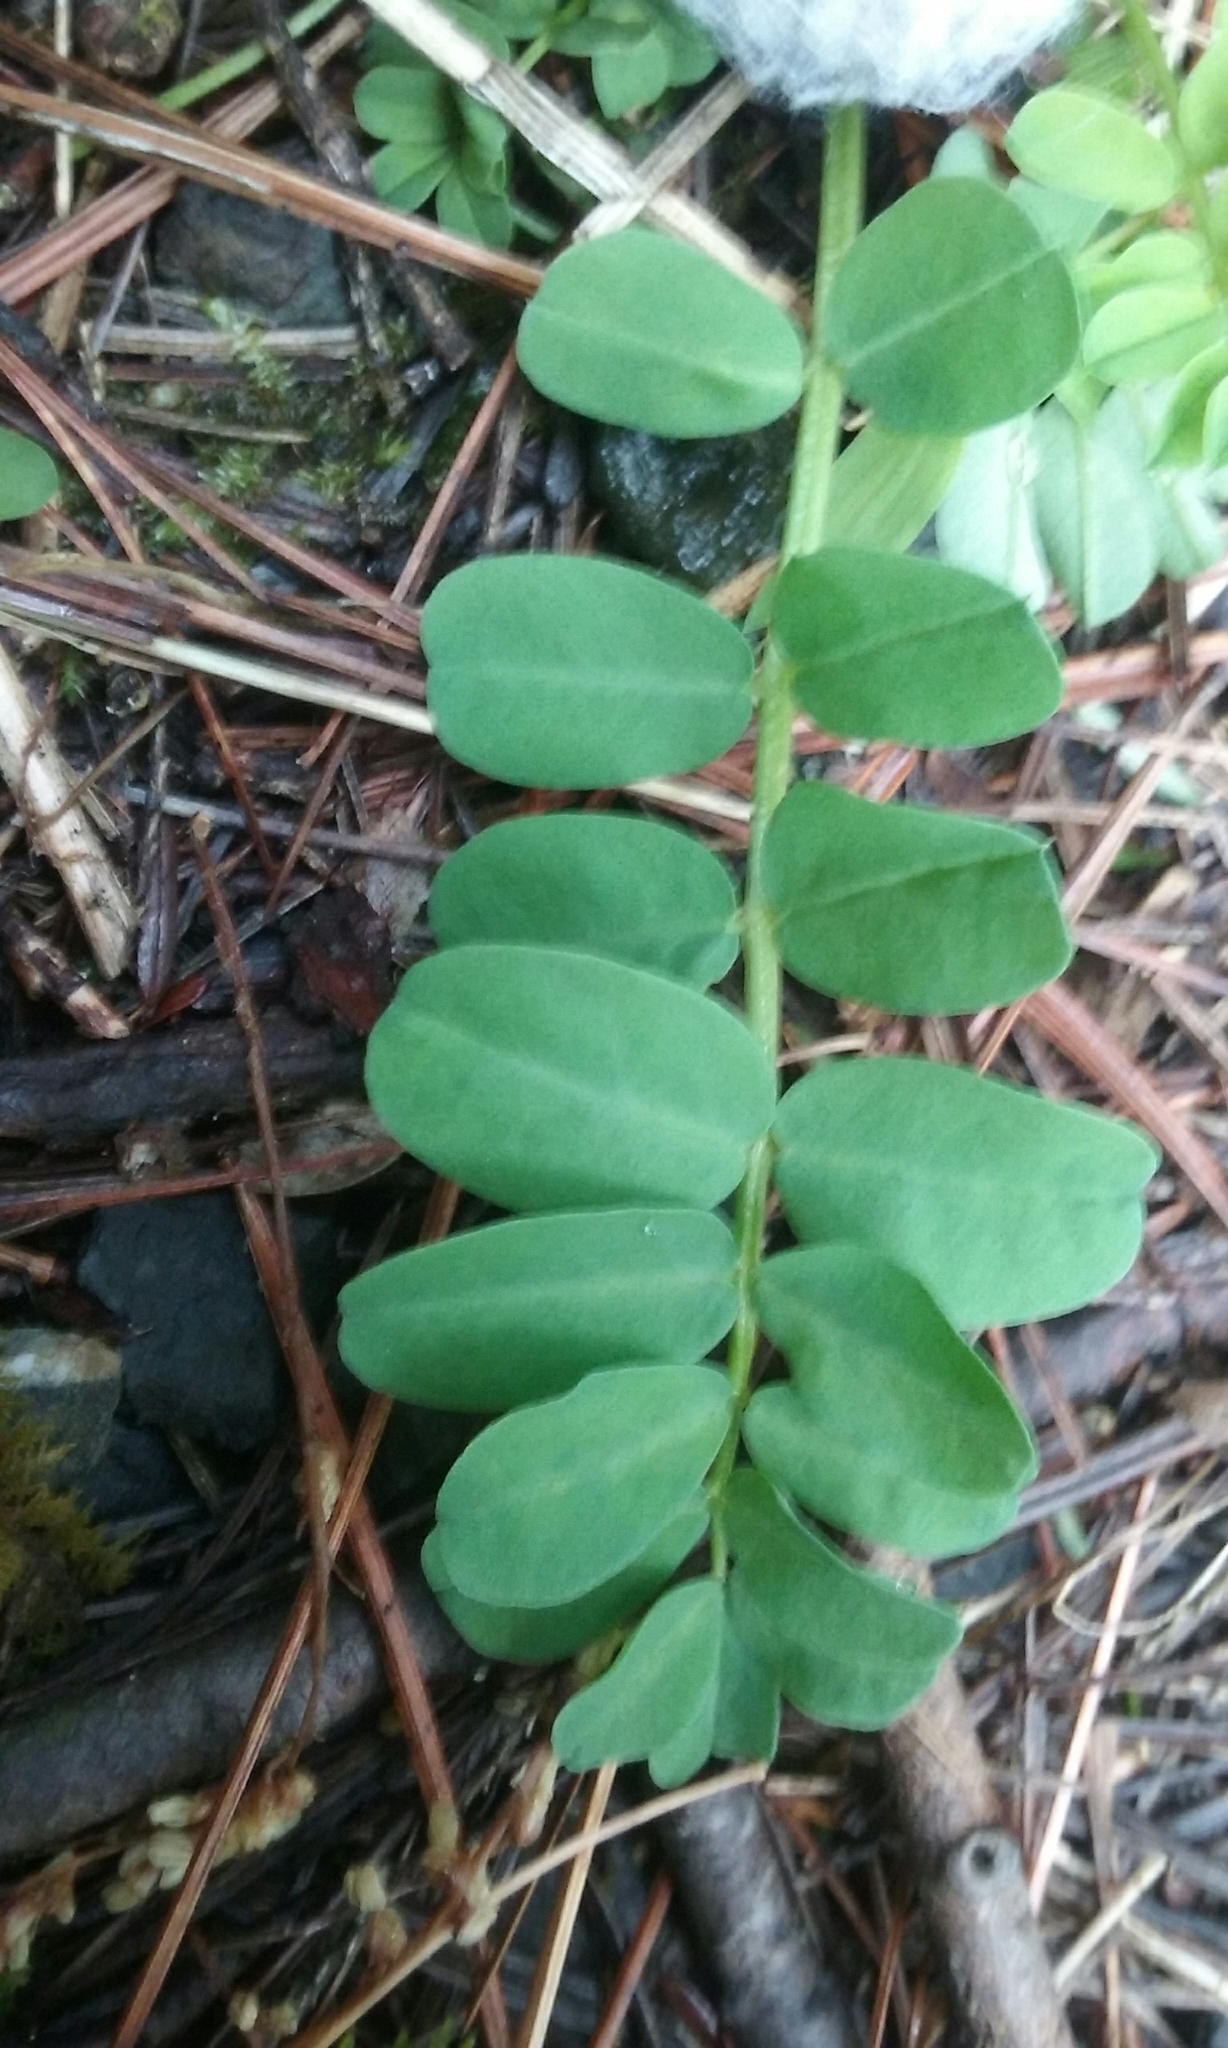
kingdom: Plantae
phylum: Tracheophyta
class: Magnoliopsida
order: Fabales
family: Fabaceae
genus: Coronilla
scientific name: Coronilla varia
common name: Crownvetch
